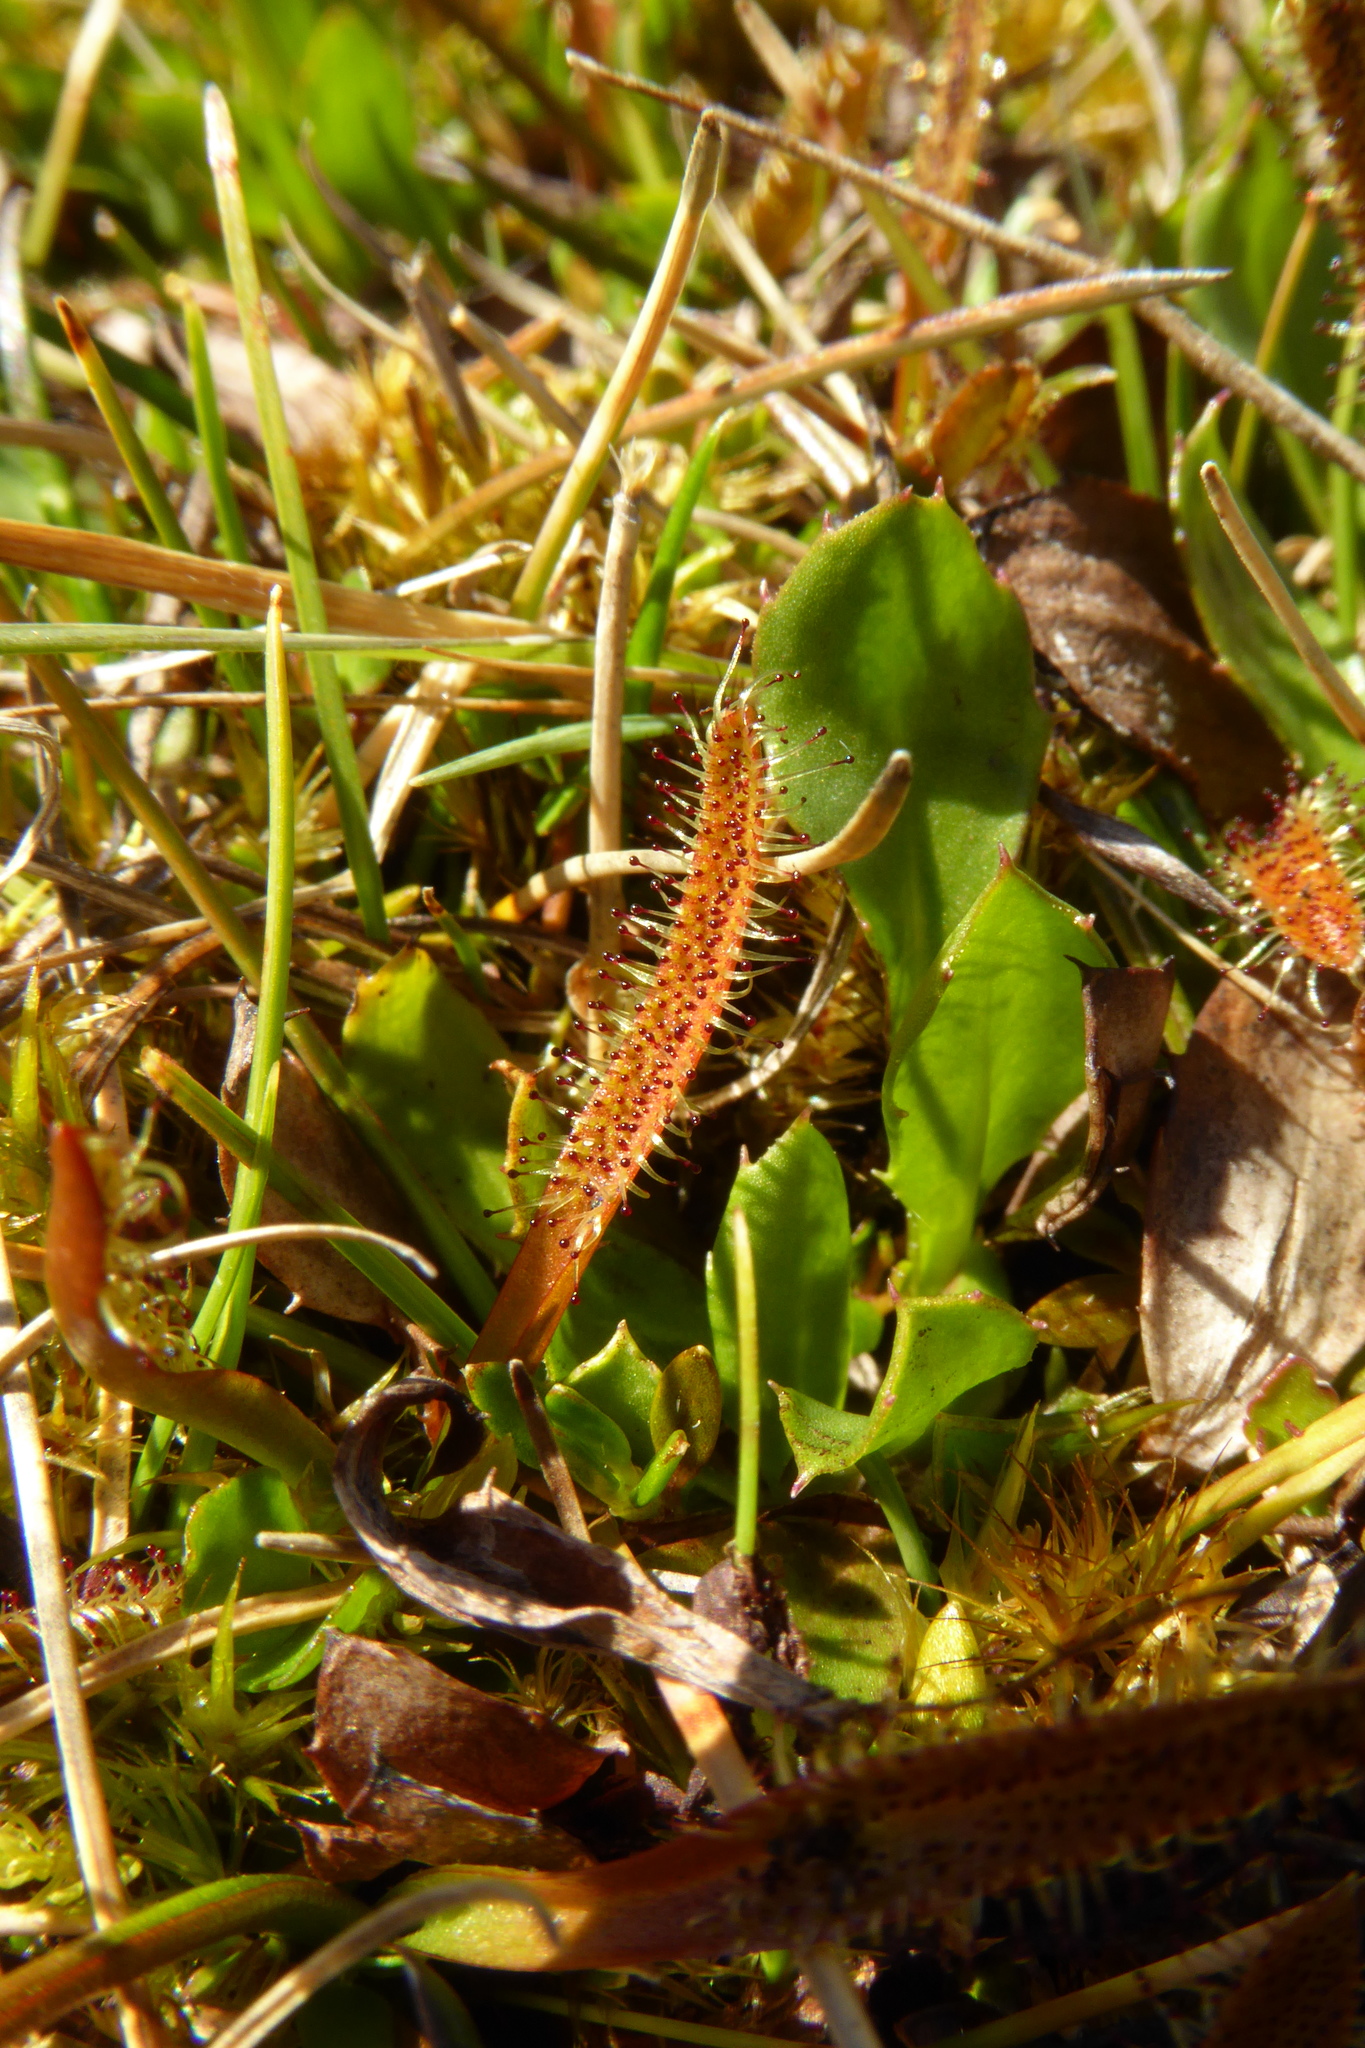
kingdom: Plantae
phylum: Tracheophyta
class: Magnoliopsida
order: Caryophyllales
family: Droseraceae
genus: Drosera
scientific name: Drosera arcturi
